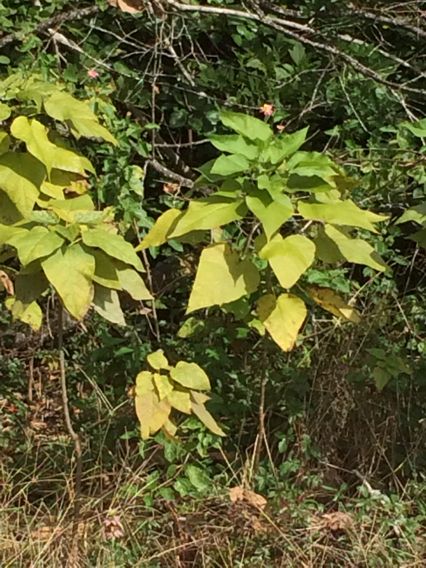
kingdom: Plantae
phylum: Tracheophyta
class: Magnoliopsida
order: Lamiales
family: Bignoniaceae
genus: Catalpa
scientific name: Catalpa bignonioides
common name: Southern catalpa
